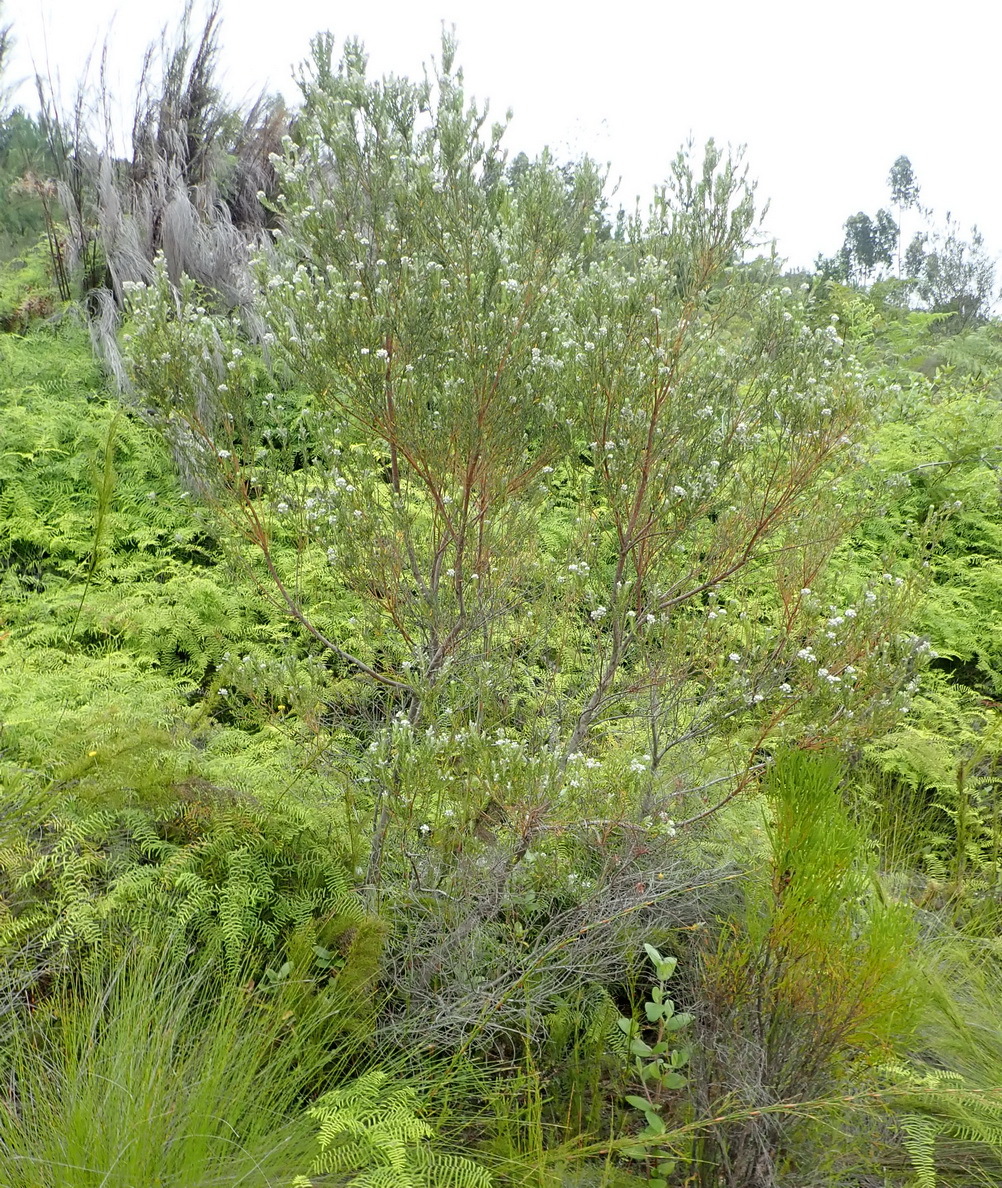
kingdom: Plantae
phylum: Tracheophyta
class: Magnoliopsida
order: Rosales
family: Rhamnaceae
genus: Phylica
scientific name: Phylica pinea
